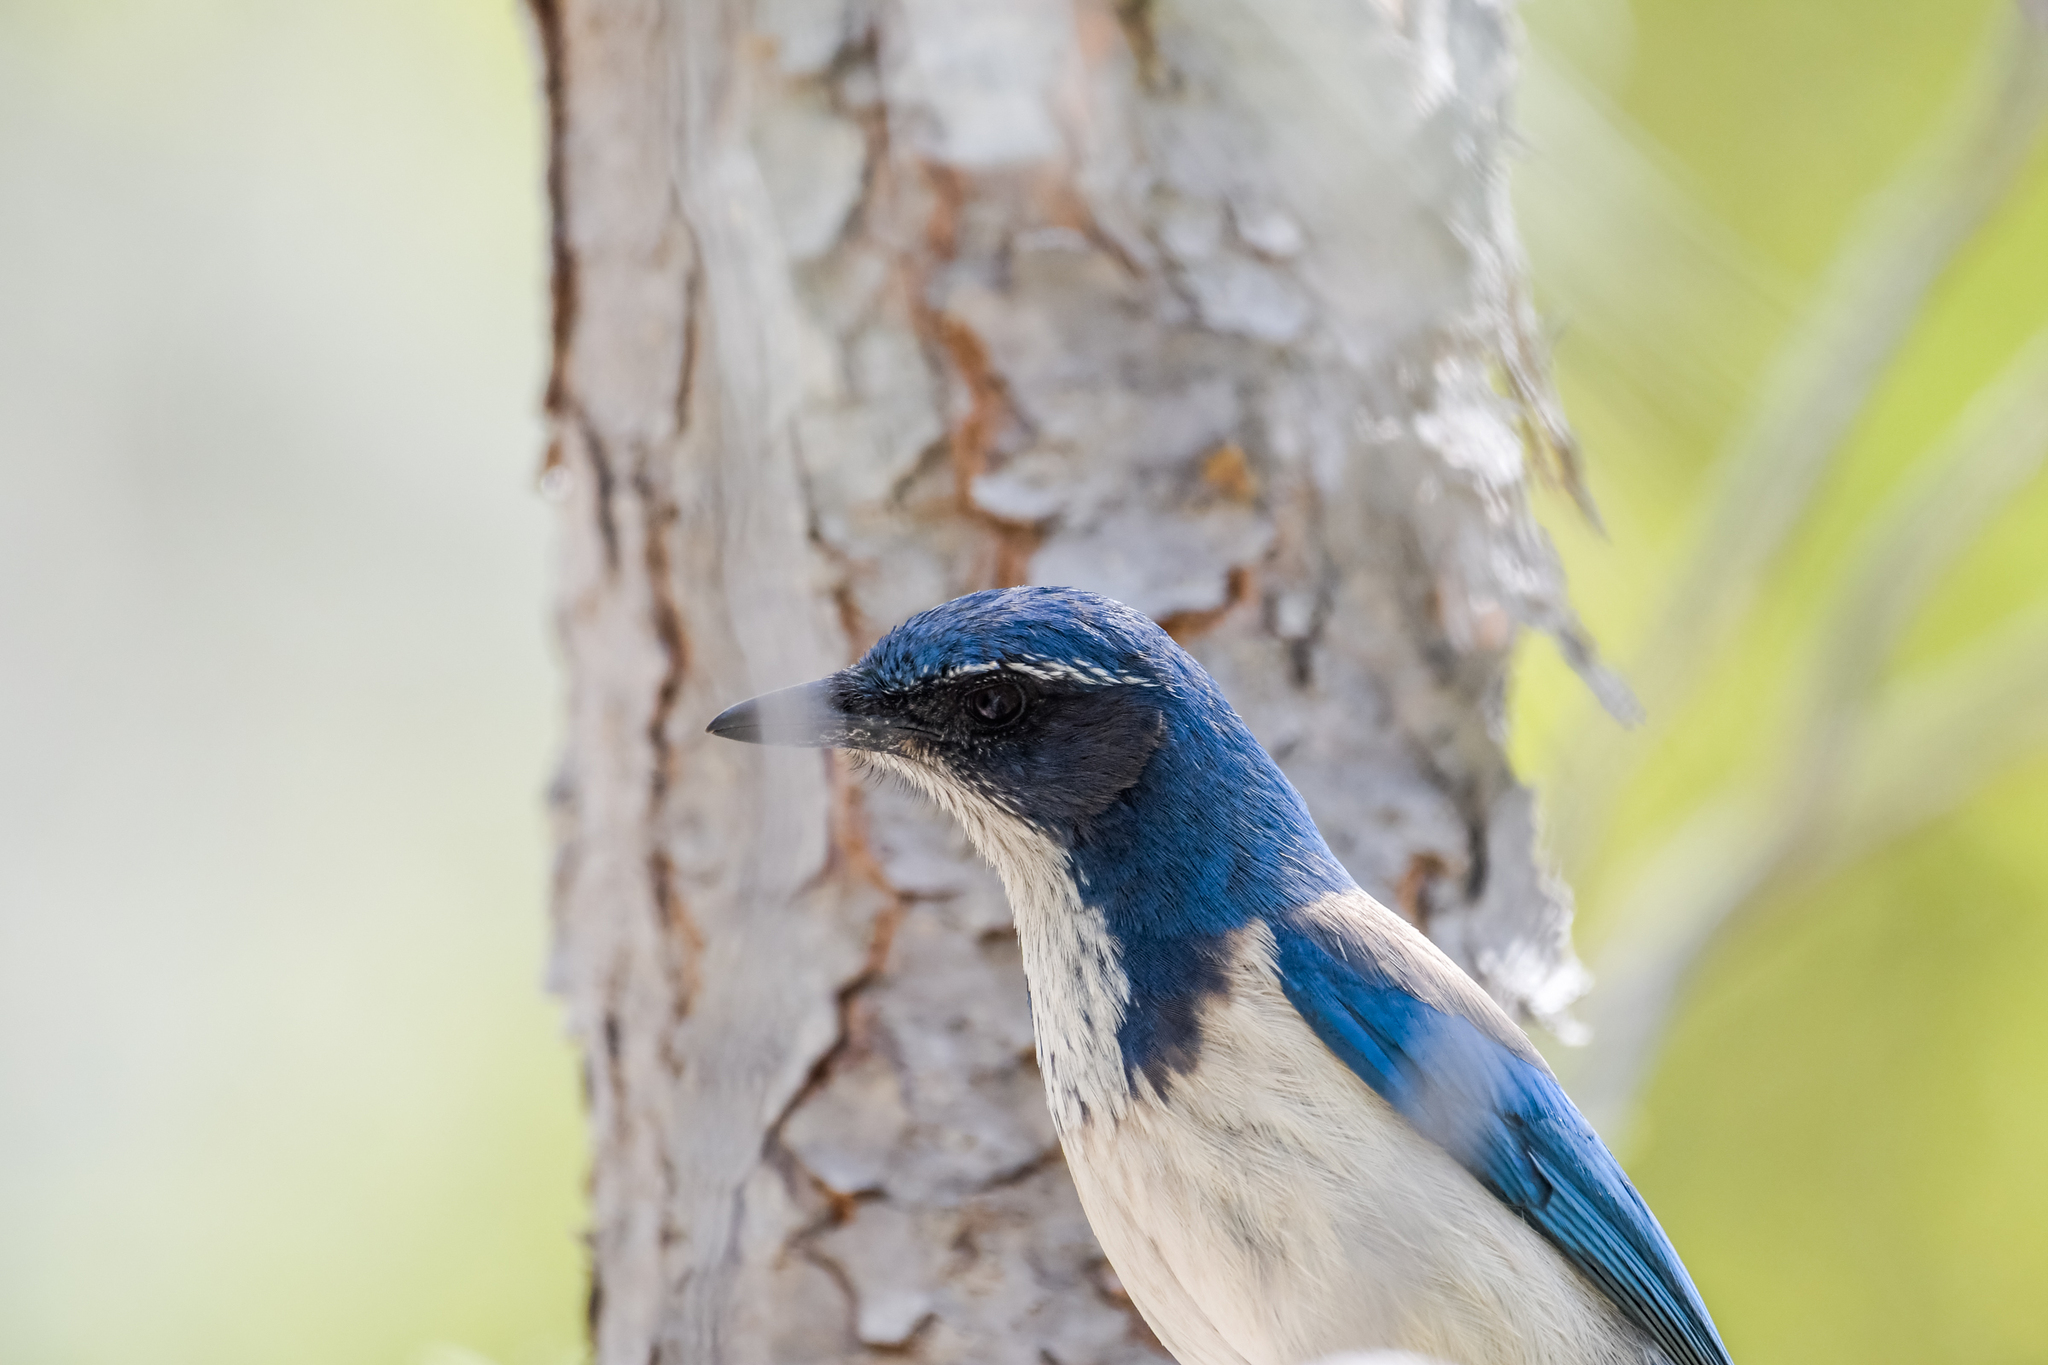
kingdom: Animalia
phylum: Chordata
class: Aves
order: Passeriformes
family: Corvidae
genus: Aphelocoma
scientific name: Aphelocoma californica
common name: California scrub-jay
